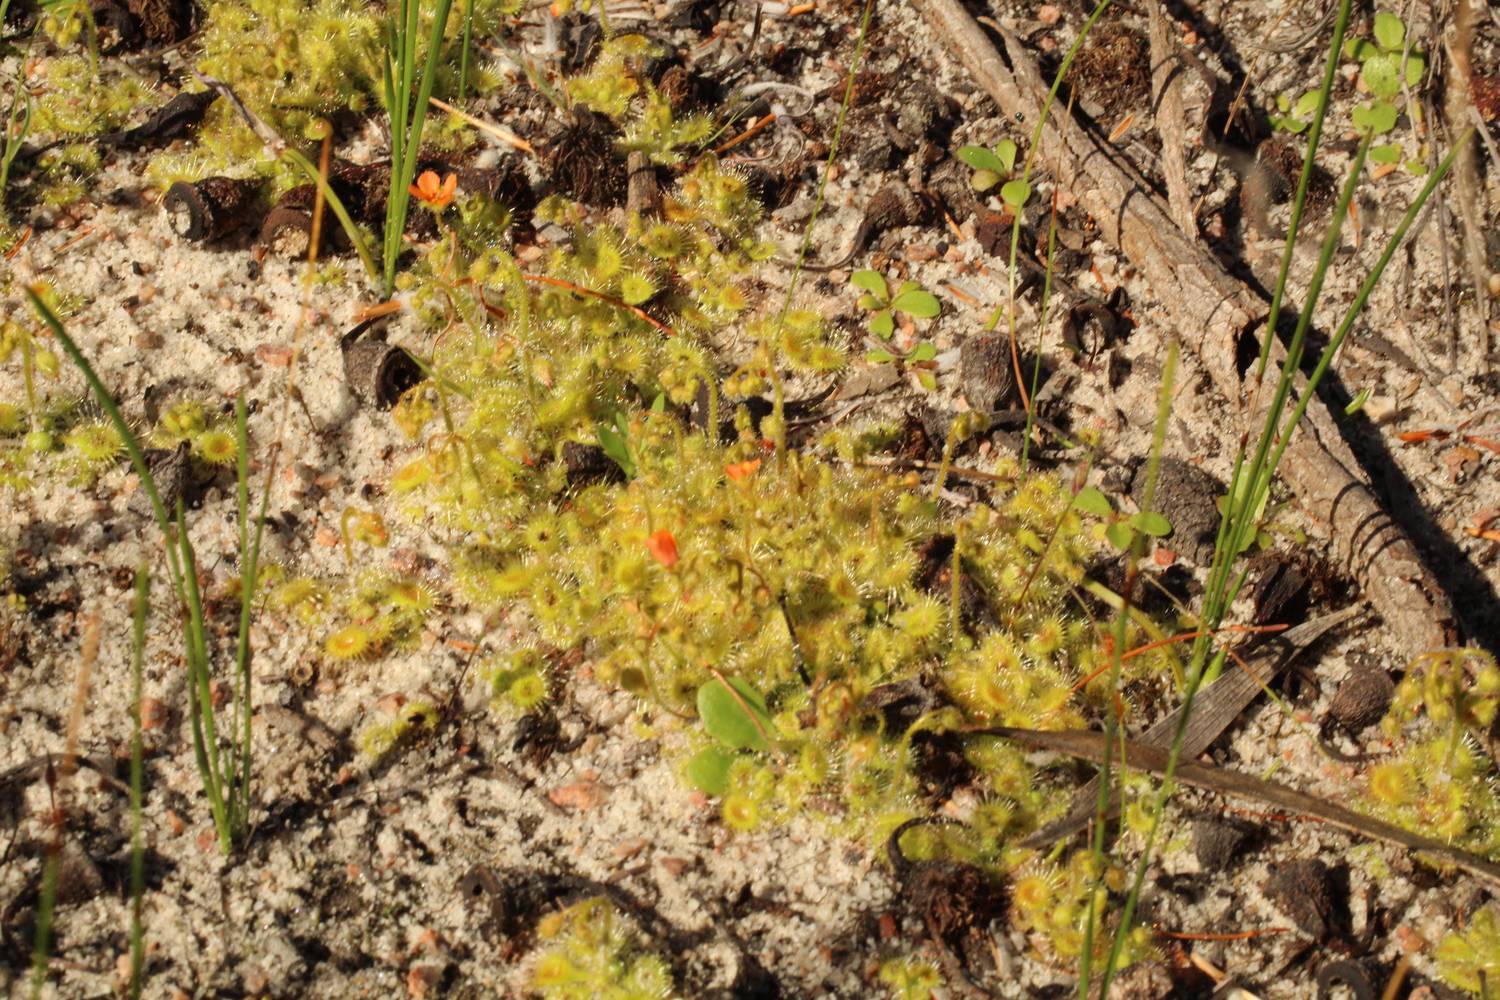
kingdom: Plantae
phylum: Tracheophyta
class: Magnoliopsida
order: Caryophyllales
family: Droseraceae
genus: Drosera
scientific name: Drosera glanduligera
